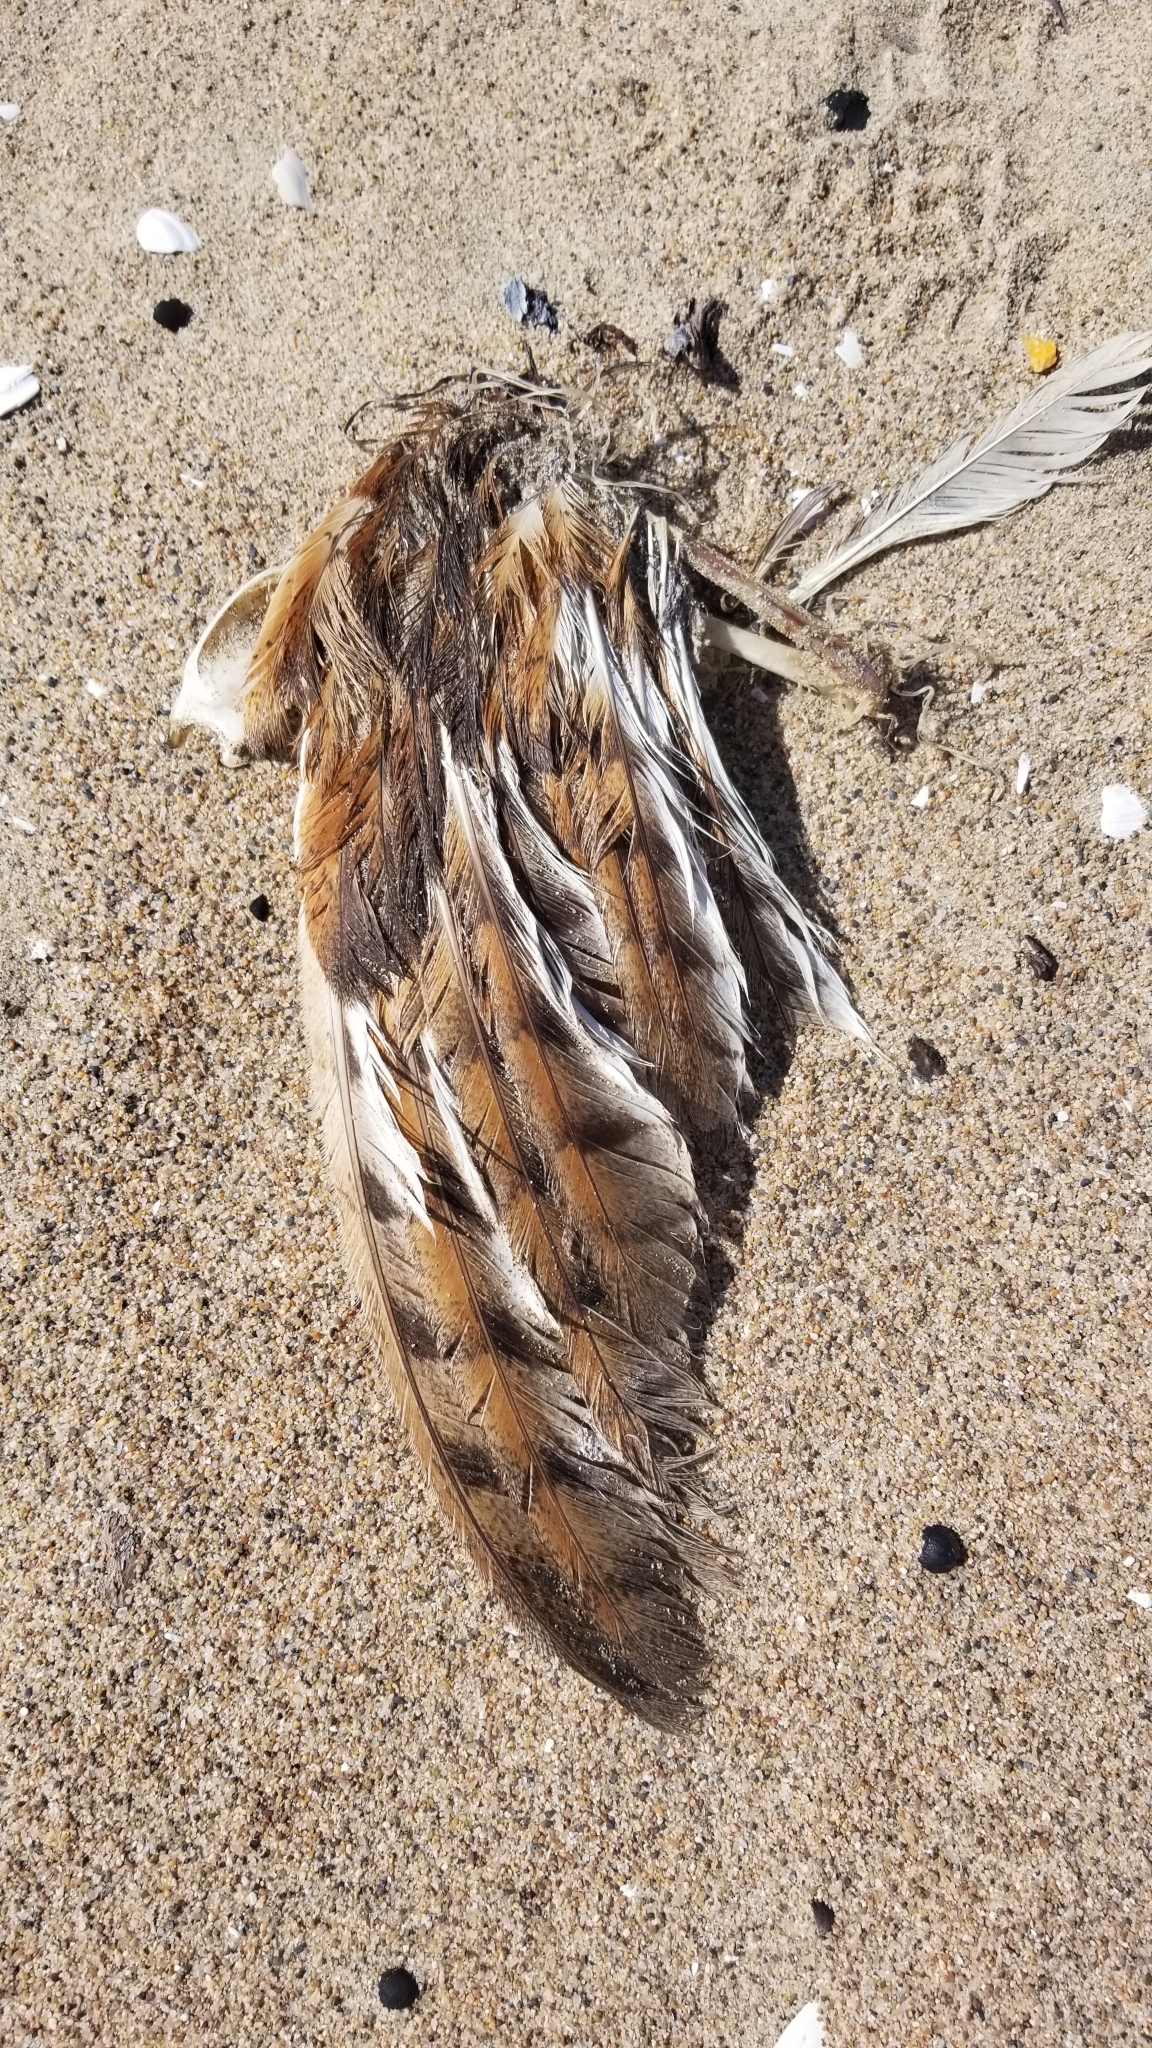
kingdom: Animalia
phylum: Chordata
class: Aves
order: Strigiformes
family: Tytonidae
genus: Tyto
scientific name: Tyto alba
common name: Barn owl
